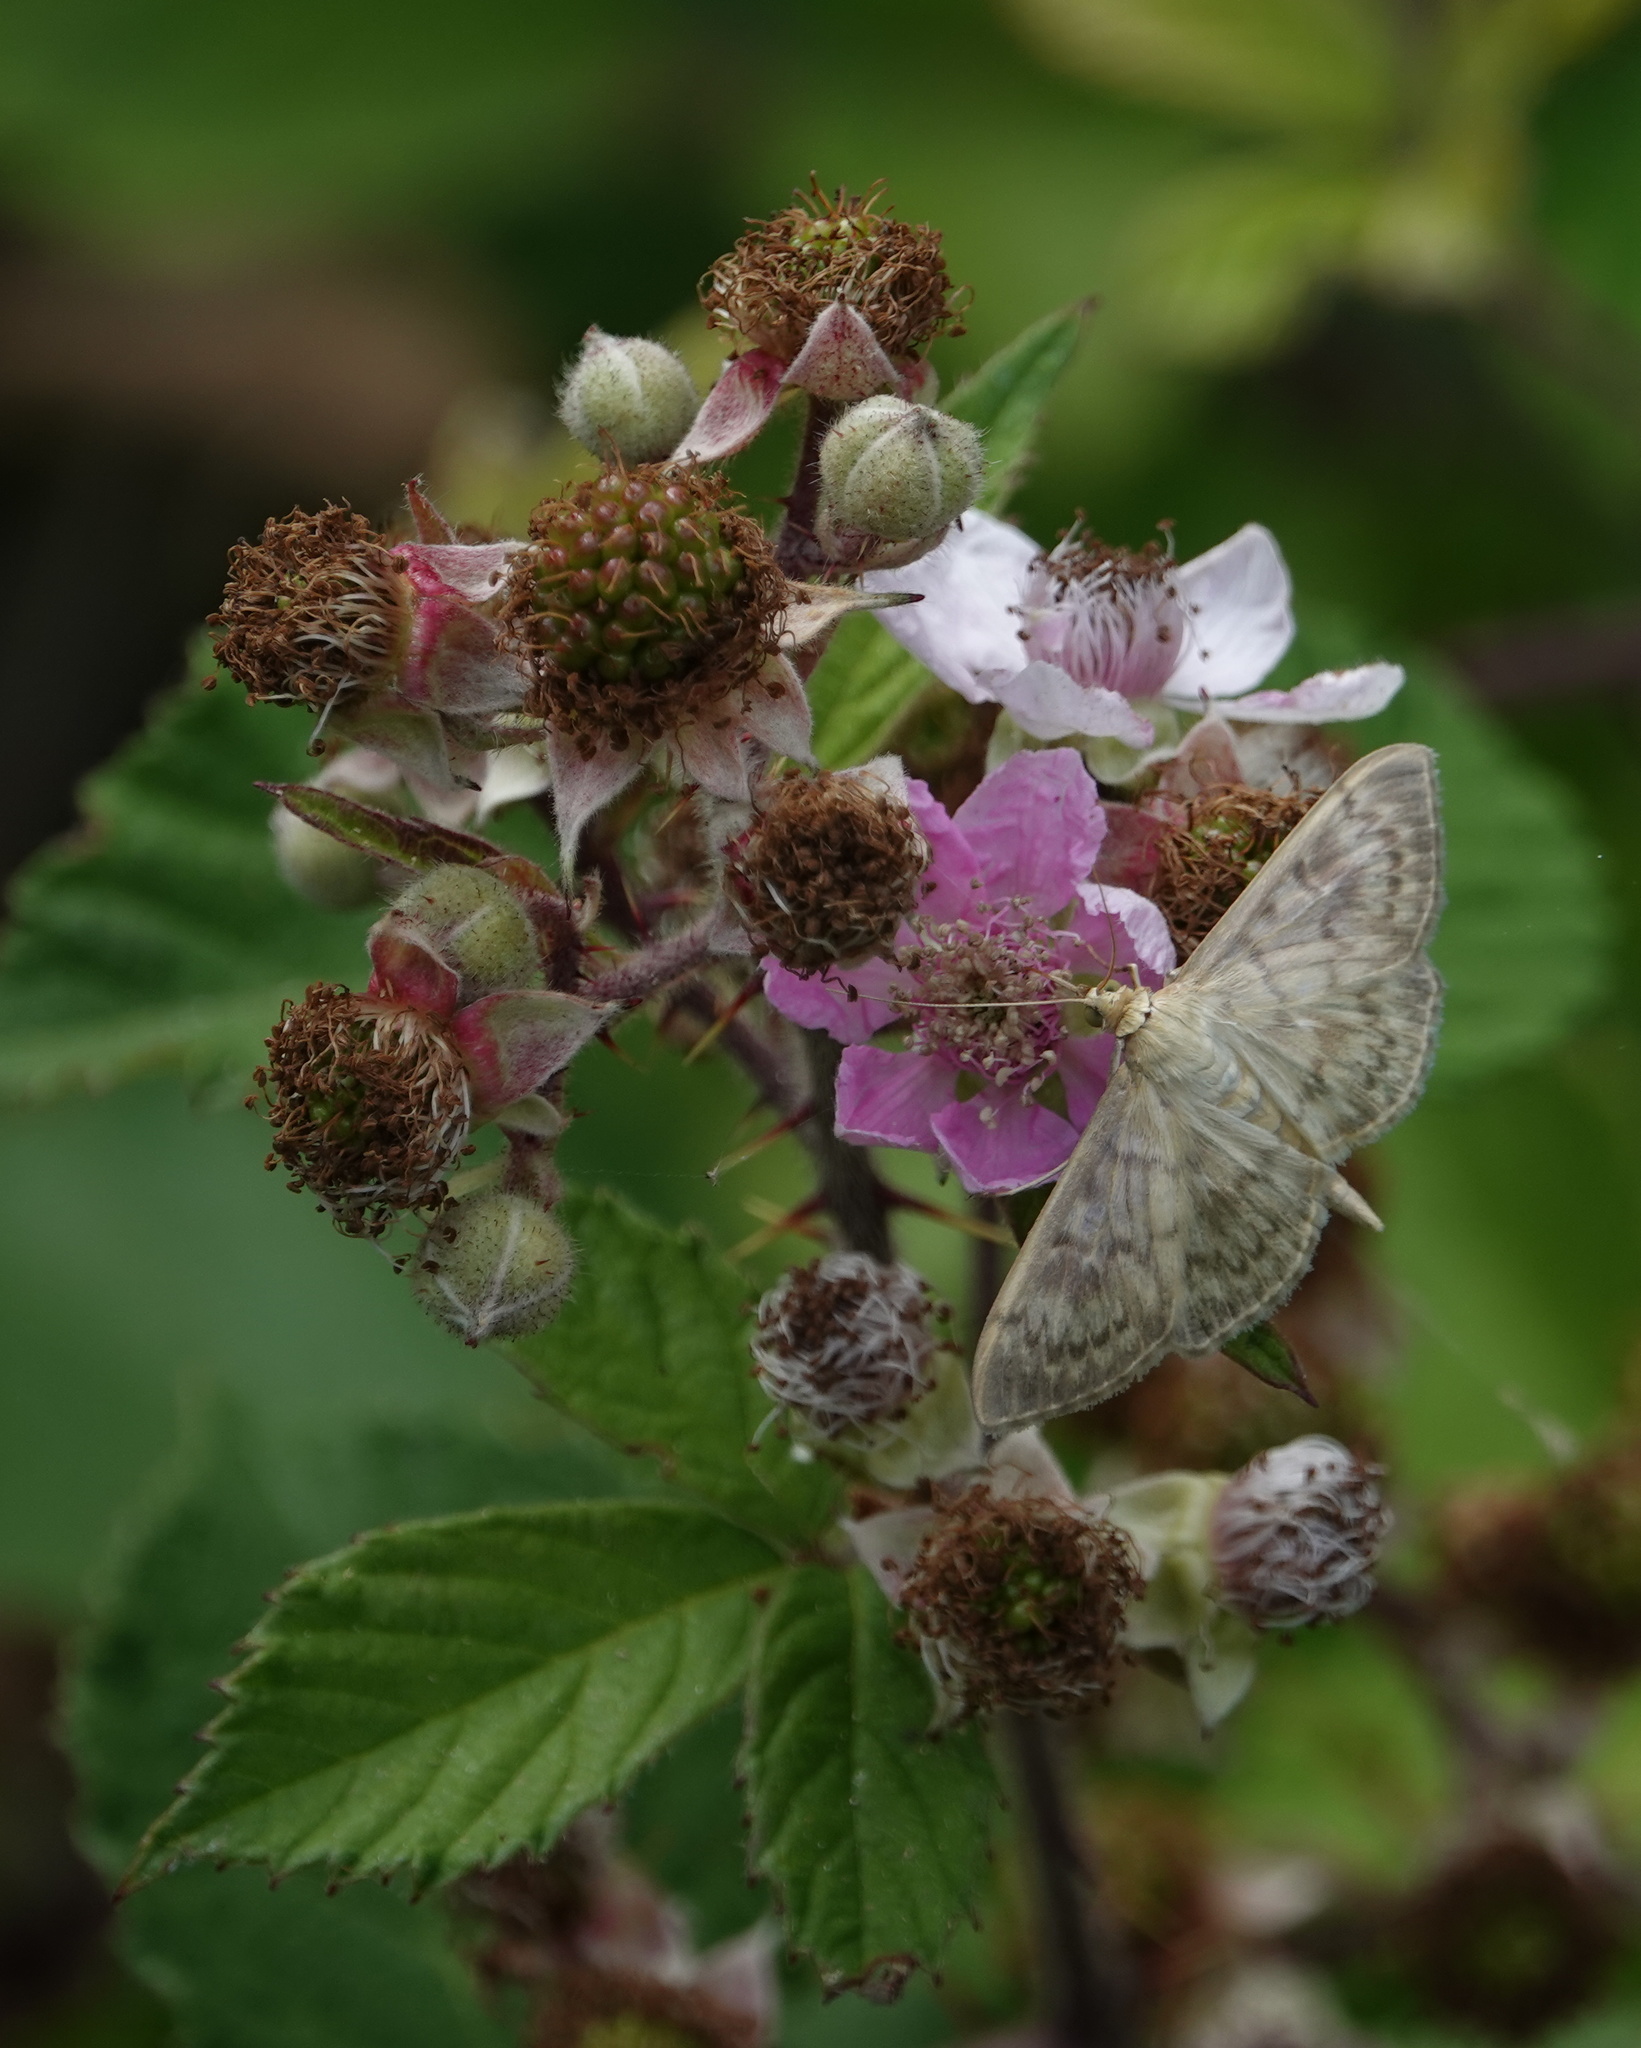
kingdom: Animalia
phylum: Arthropoda
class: Insecta
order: Lepidoptera
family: Crambidae
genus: Patania
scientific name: Patania ruralis
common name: Mother of pearl
